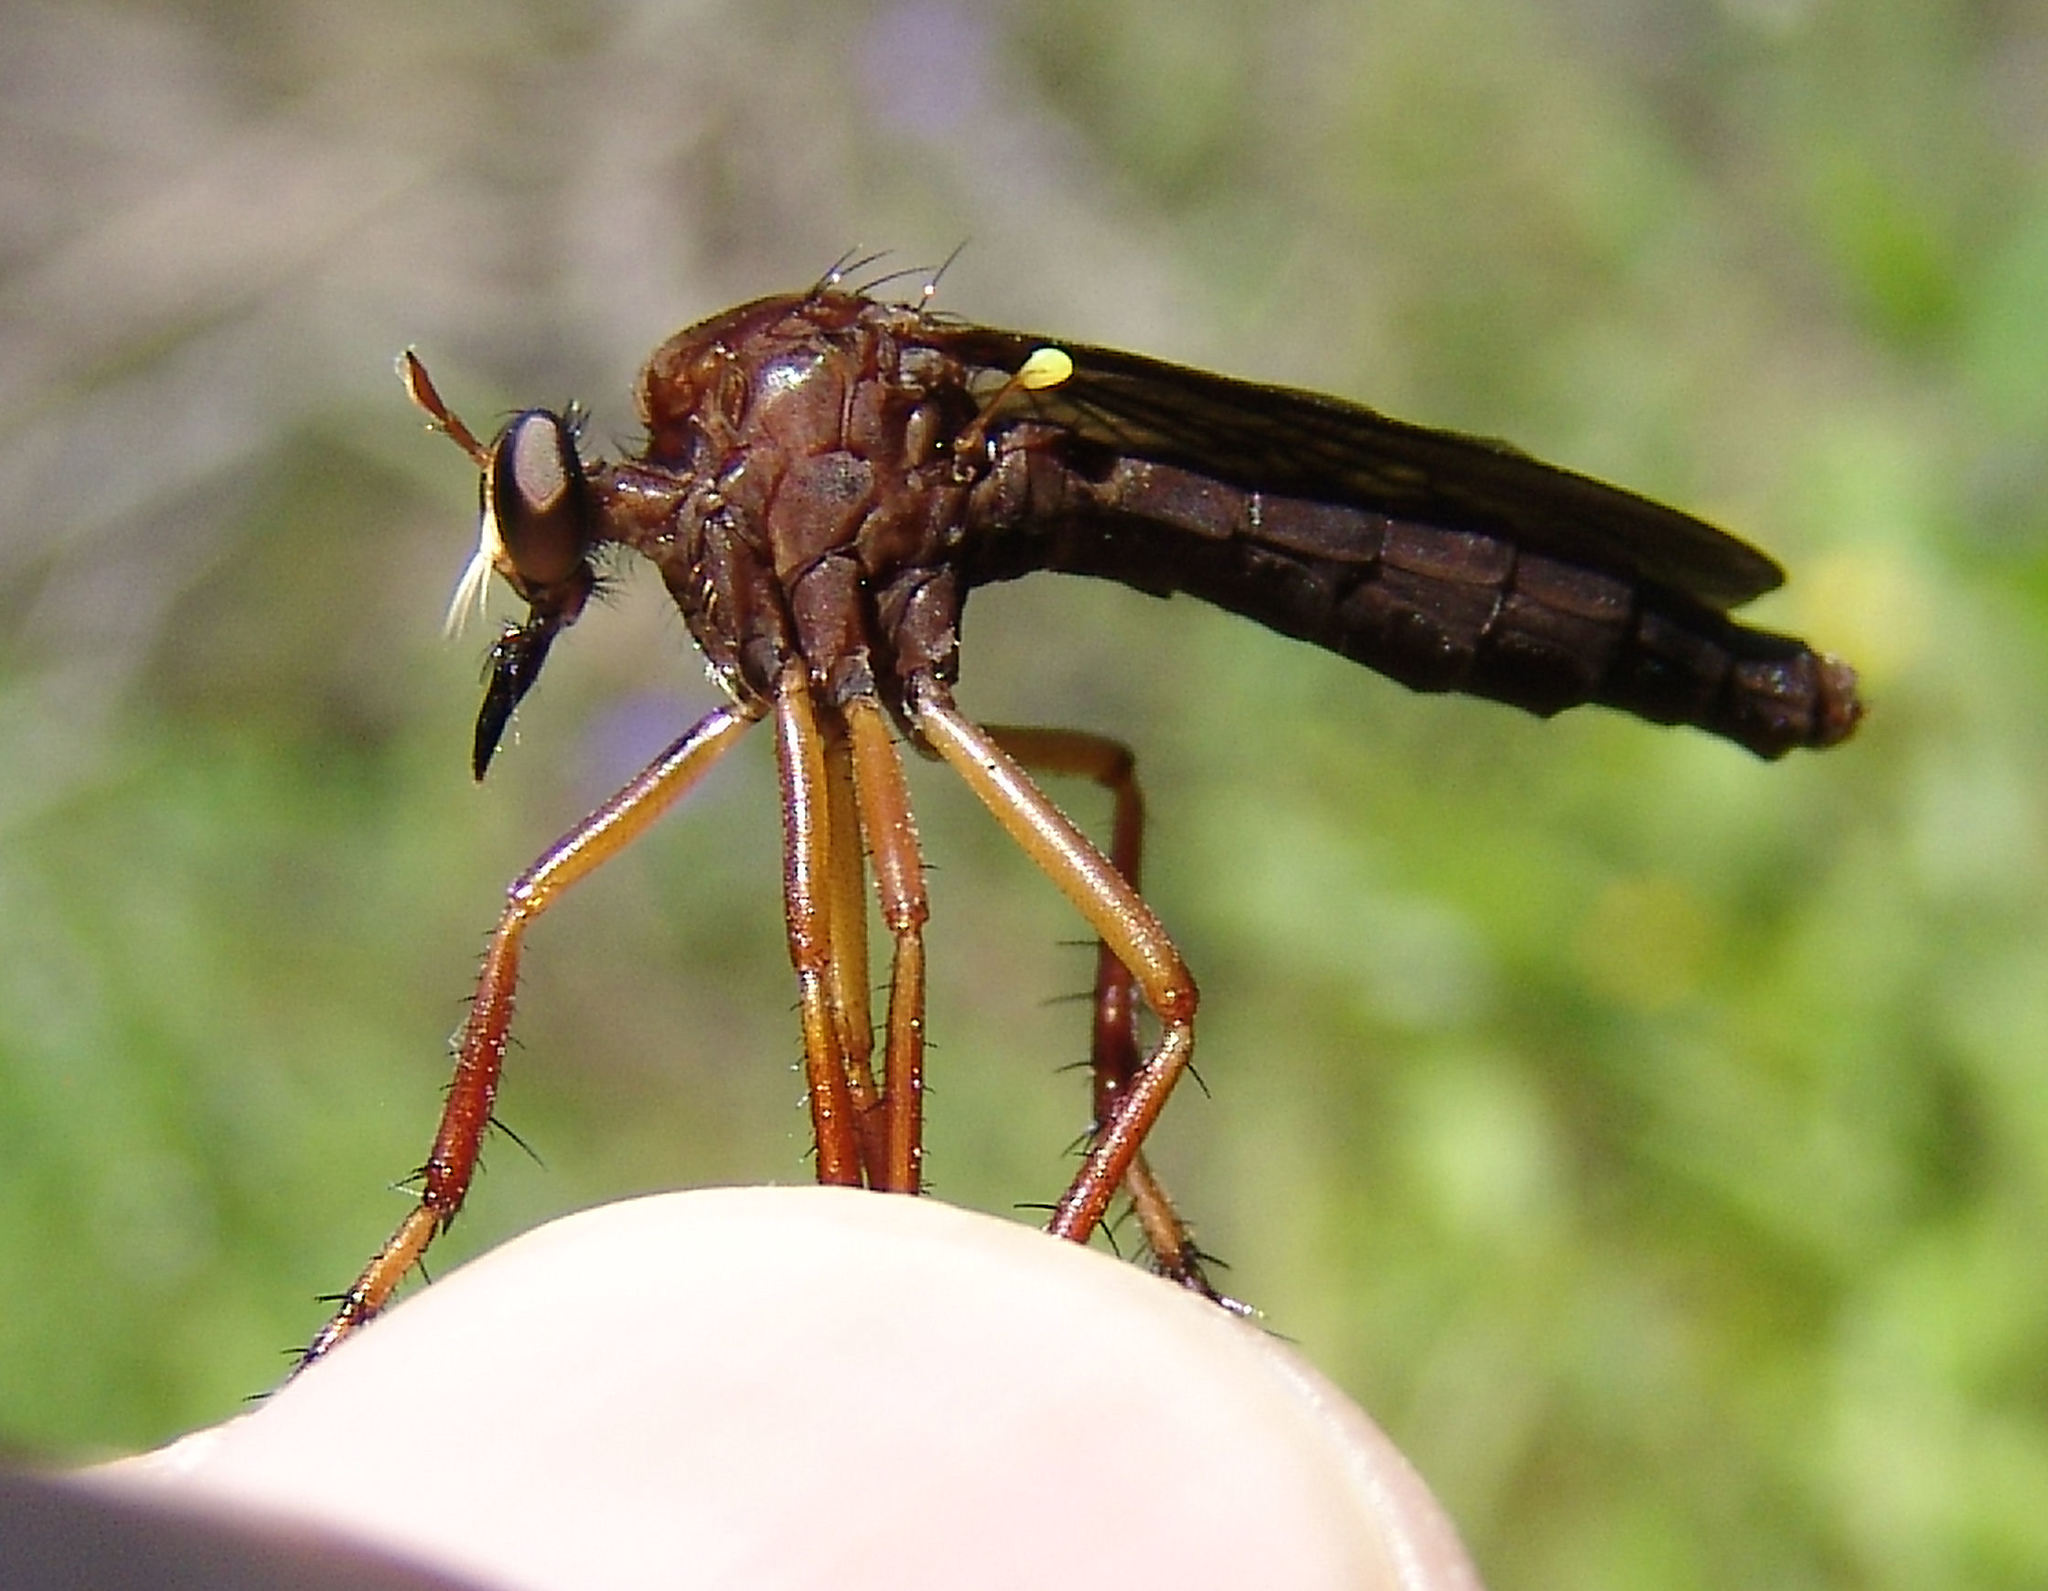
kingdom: Animalia
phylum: Arthropoda
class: Insecta
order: Diptera
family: Asilidae
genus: Diogmites
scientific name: Diogmites platypterus
